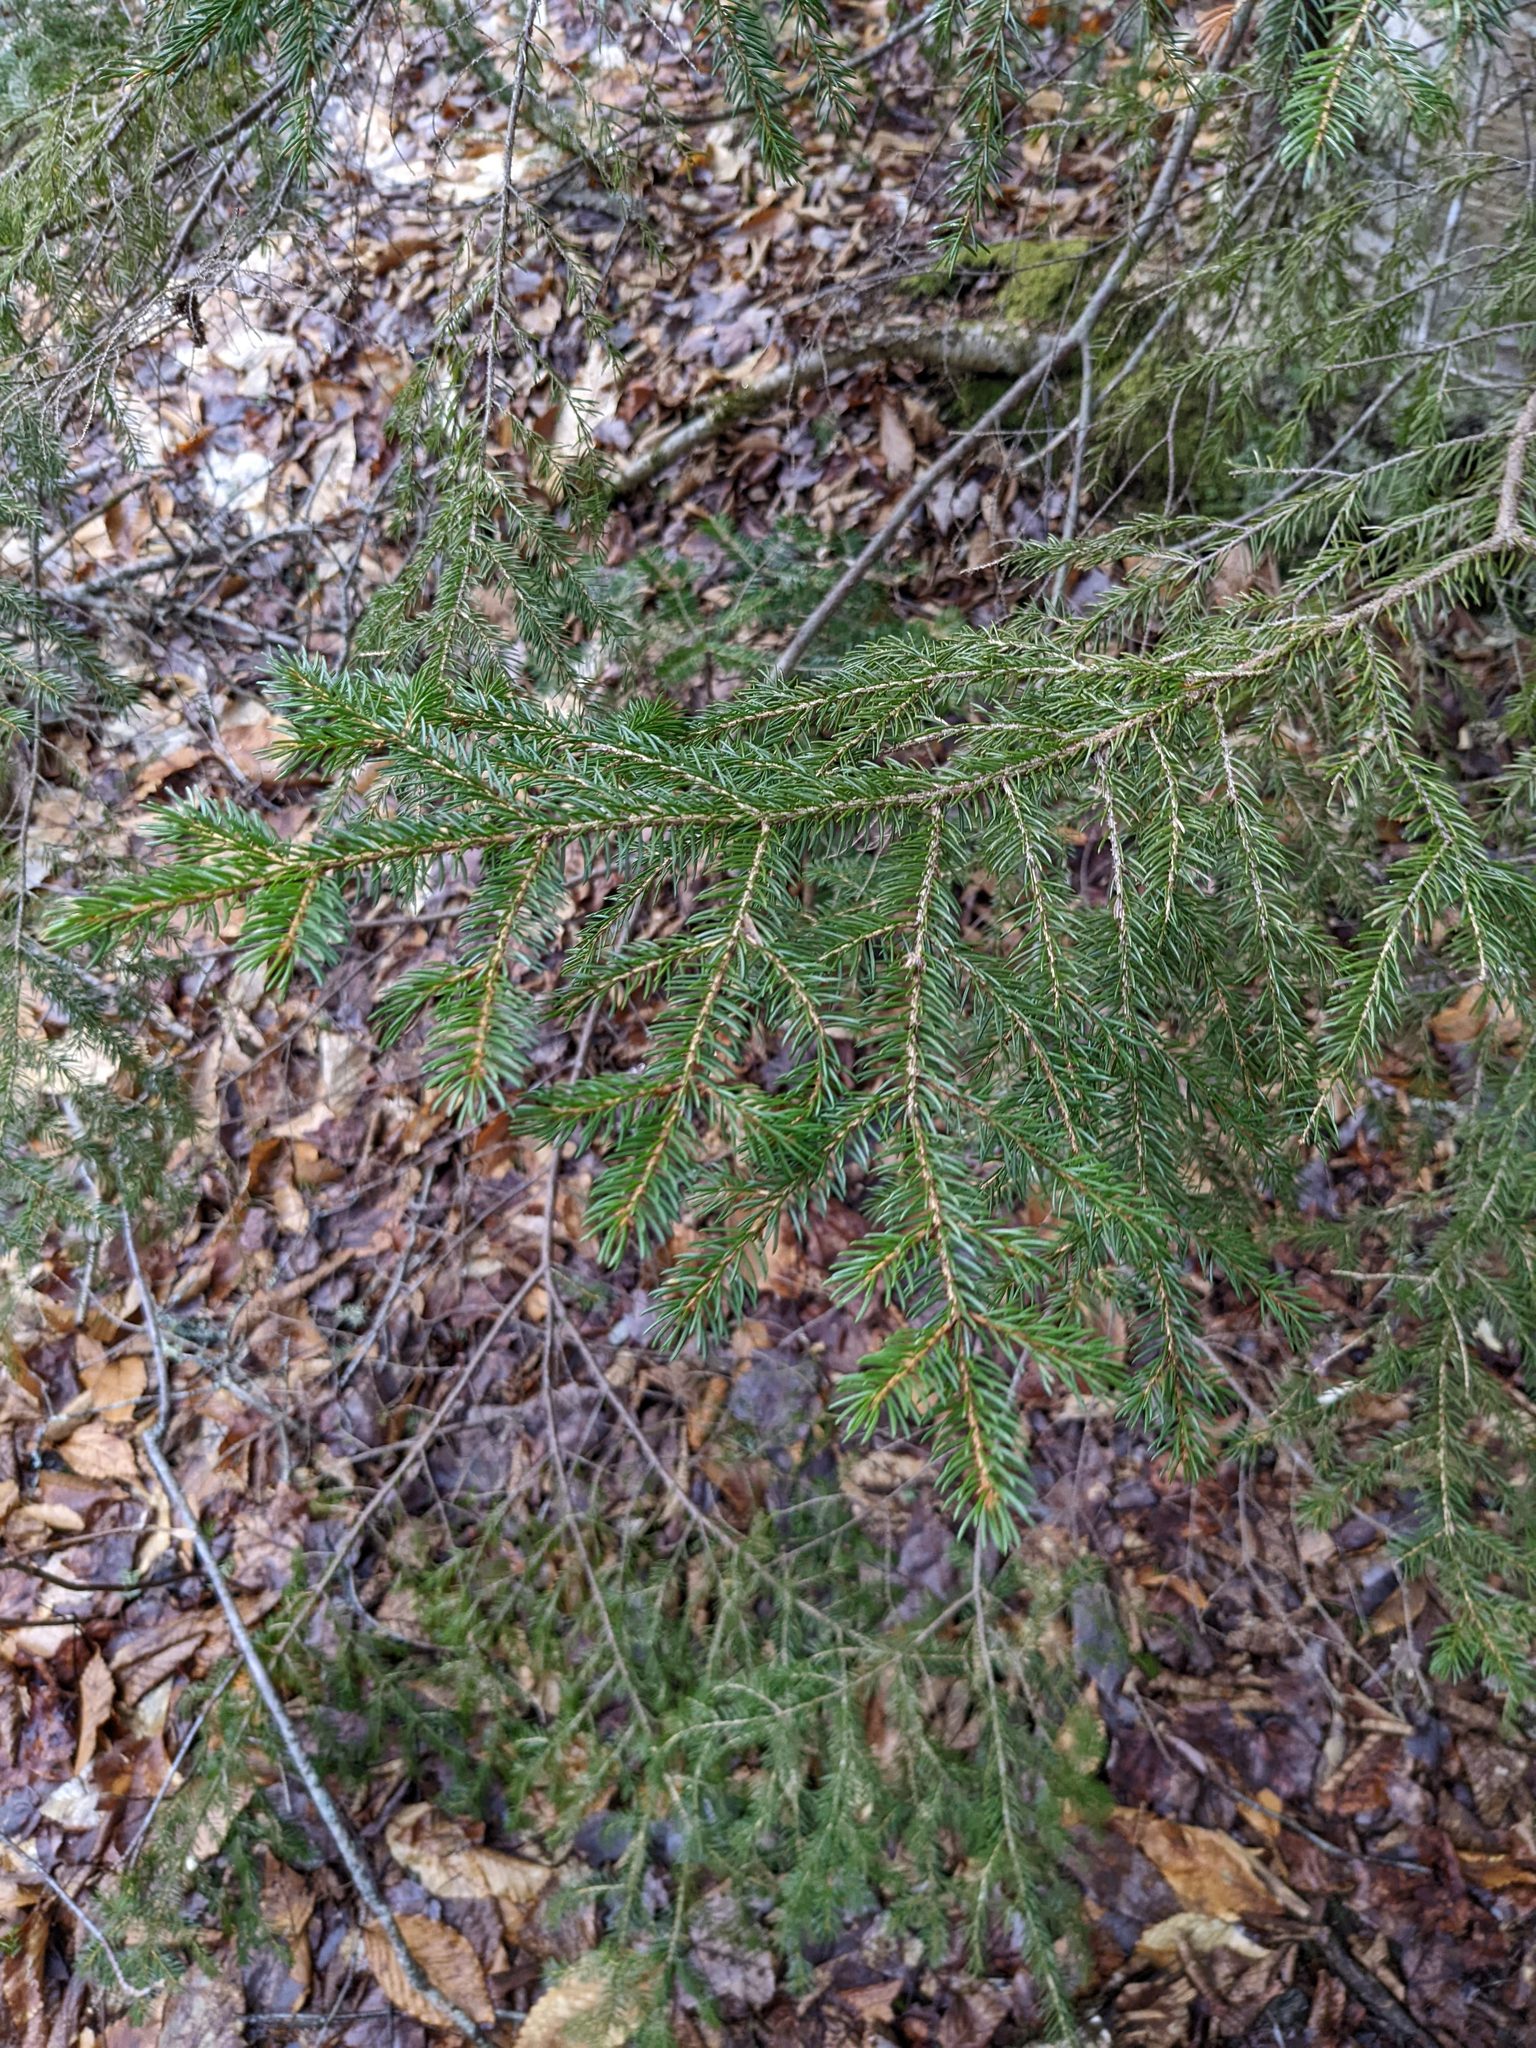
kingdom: Plantae
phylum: Tracheophyta
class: Pinopsida
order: Pinales
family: Pinaceae
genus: Picea
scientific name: Picea rubens
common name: Red spruce
